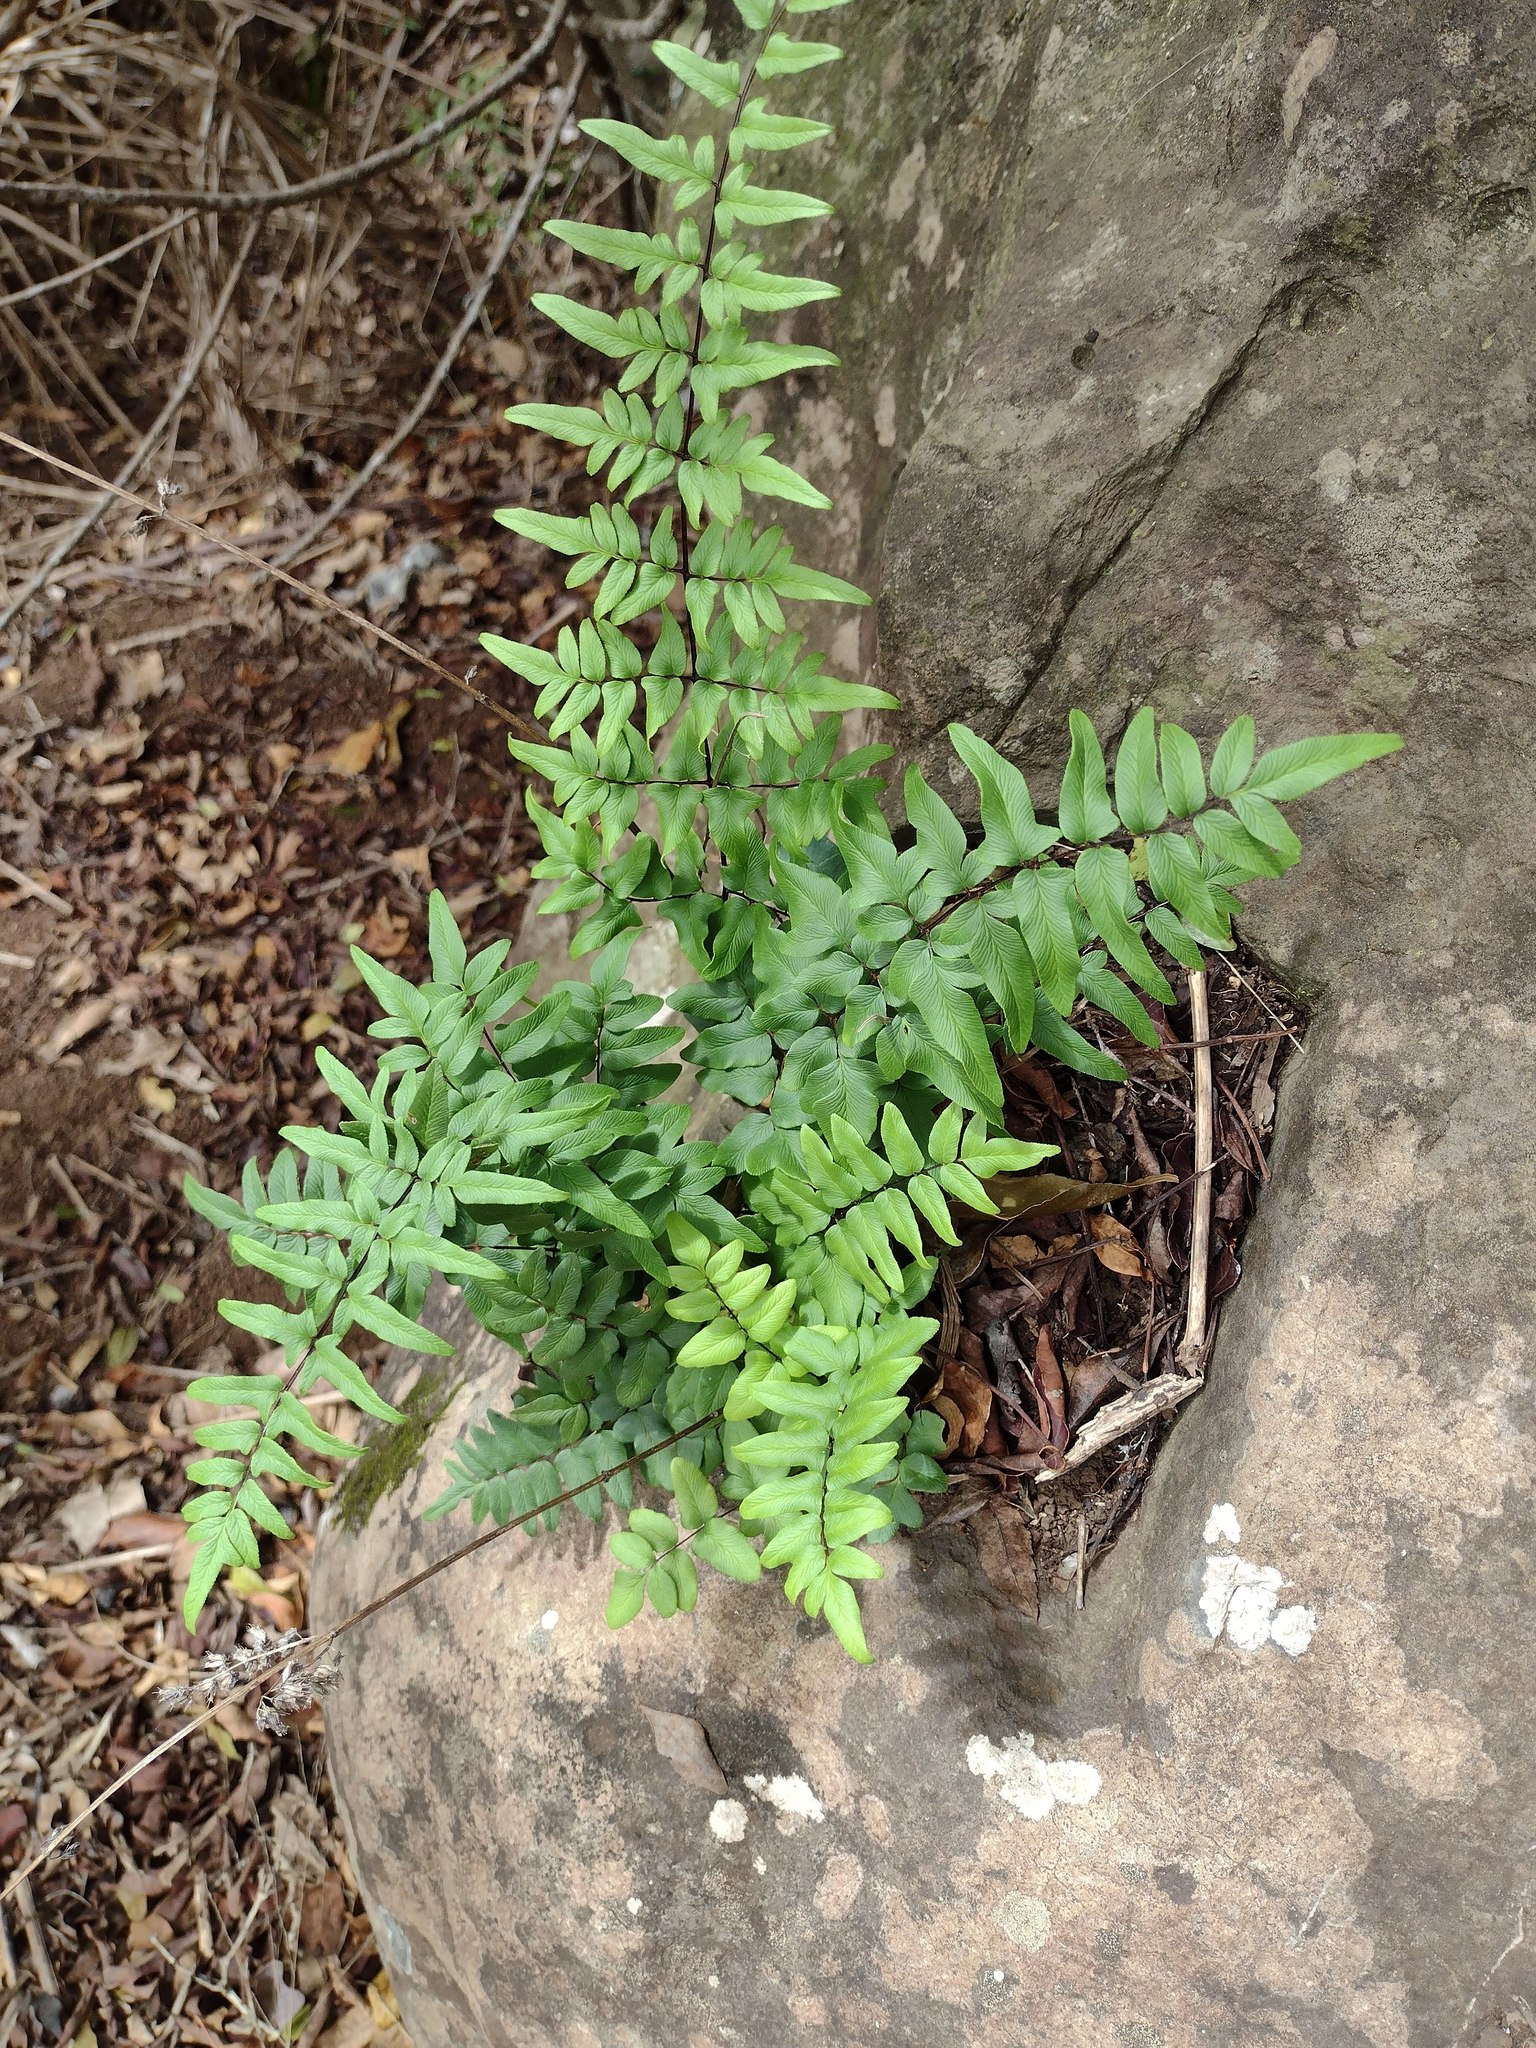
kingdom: Plantae
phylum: Tracheophyta
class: Polypodiopsida
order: Polypodiales
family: Pteridaceae
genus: Cheilanthes
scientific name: Cheilanthes viridis
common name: Green cliffbrake
